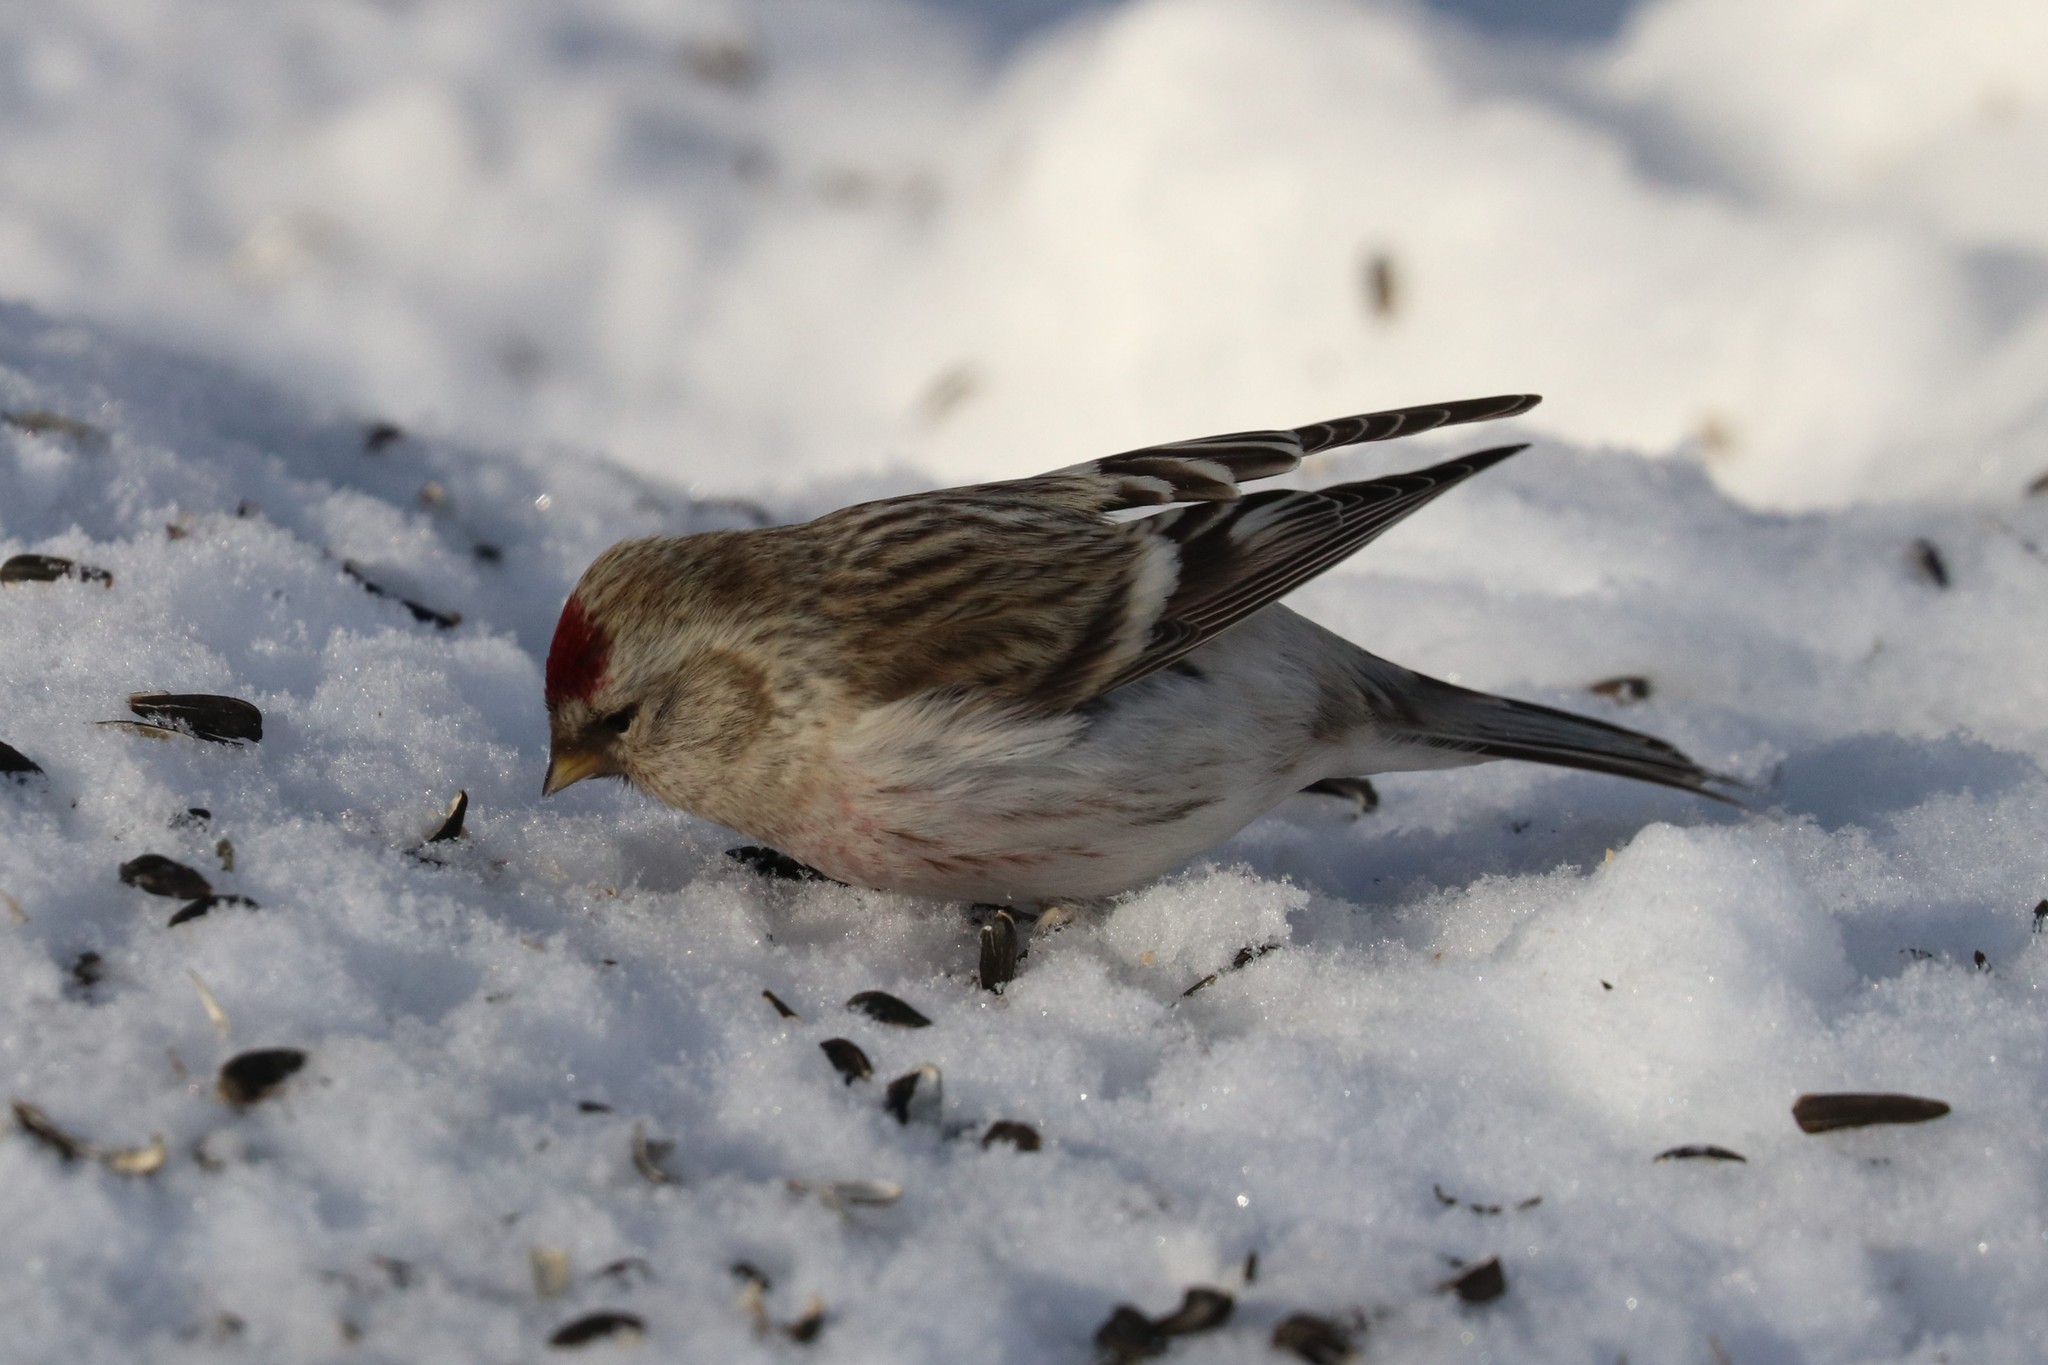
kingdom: Animalia
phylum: Chordata
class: Aves
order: Passeriformes
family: Fringillidae
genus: Acanthis
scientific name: Acanthis hornemanni
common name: Arctic redpoll
